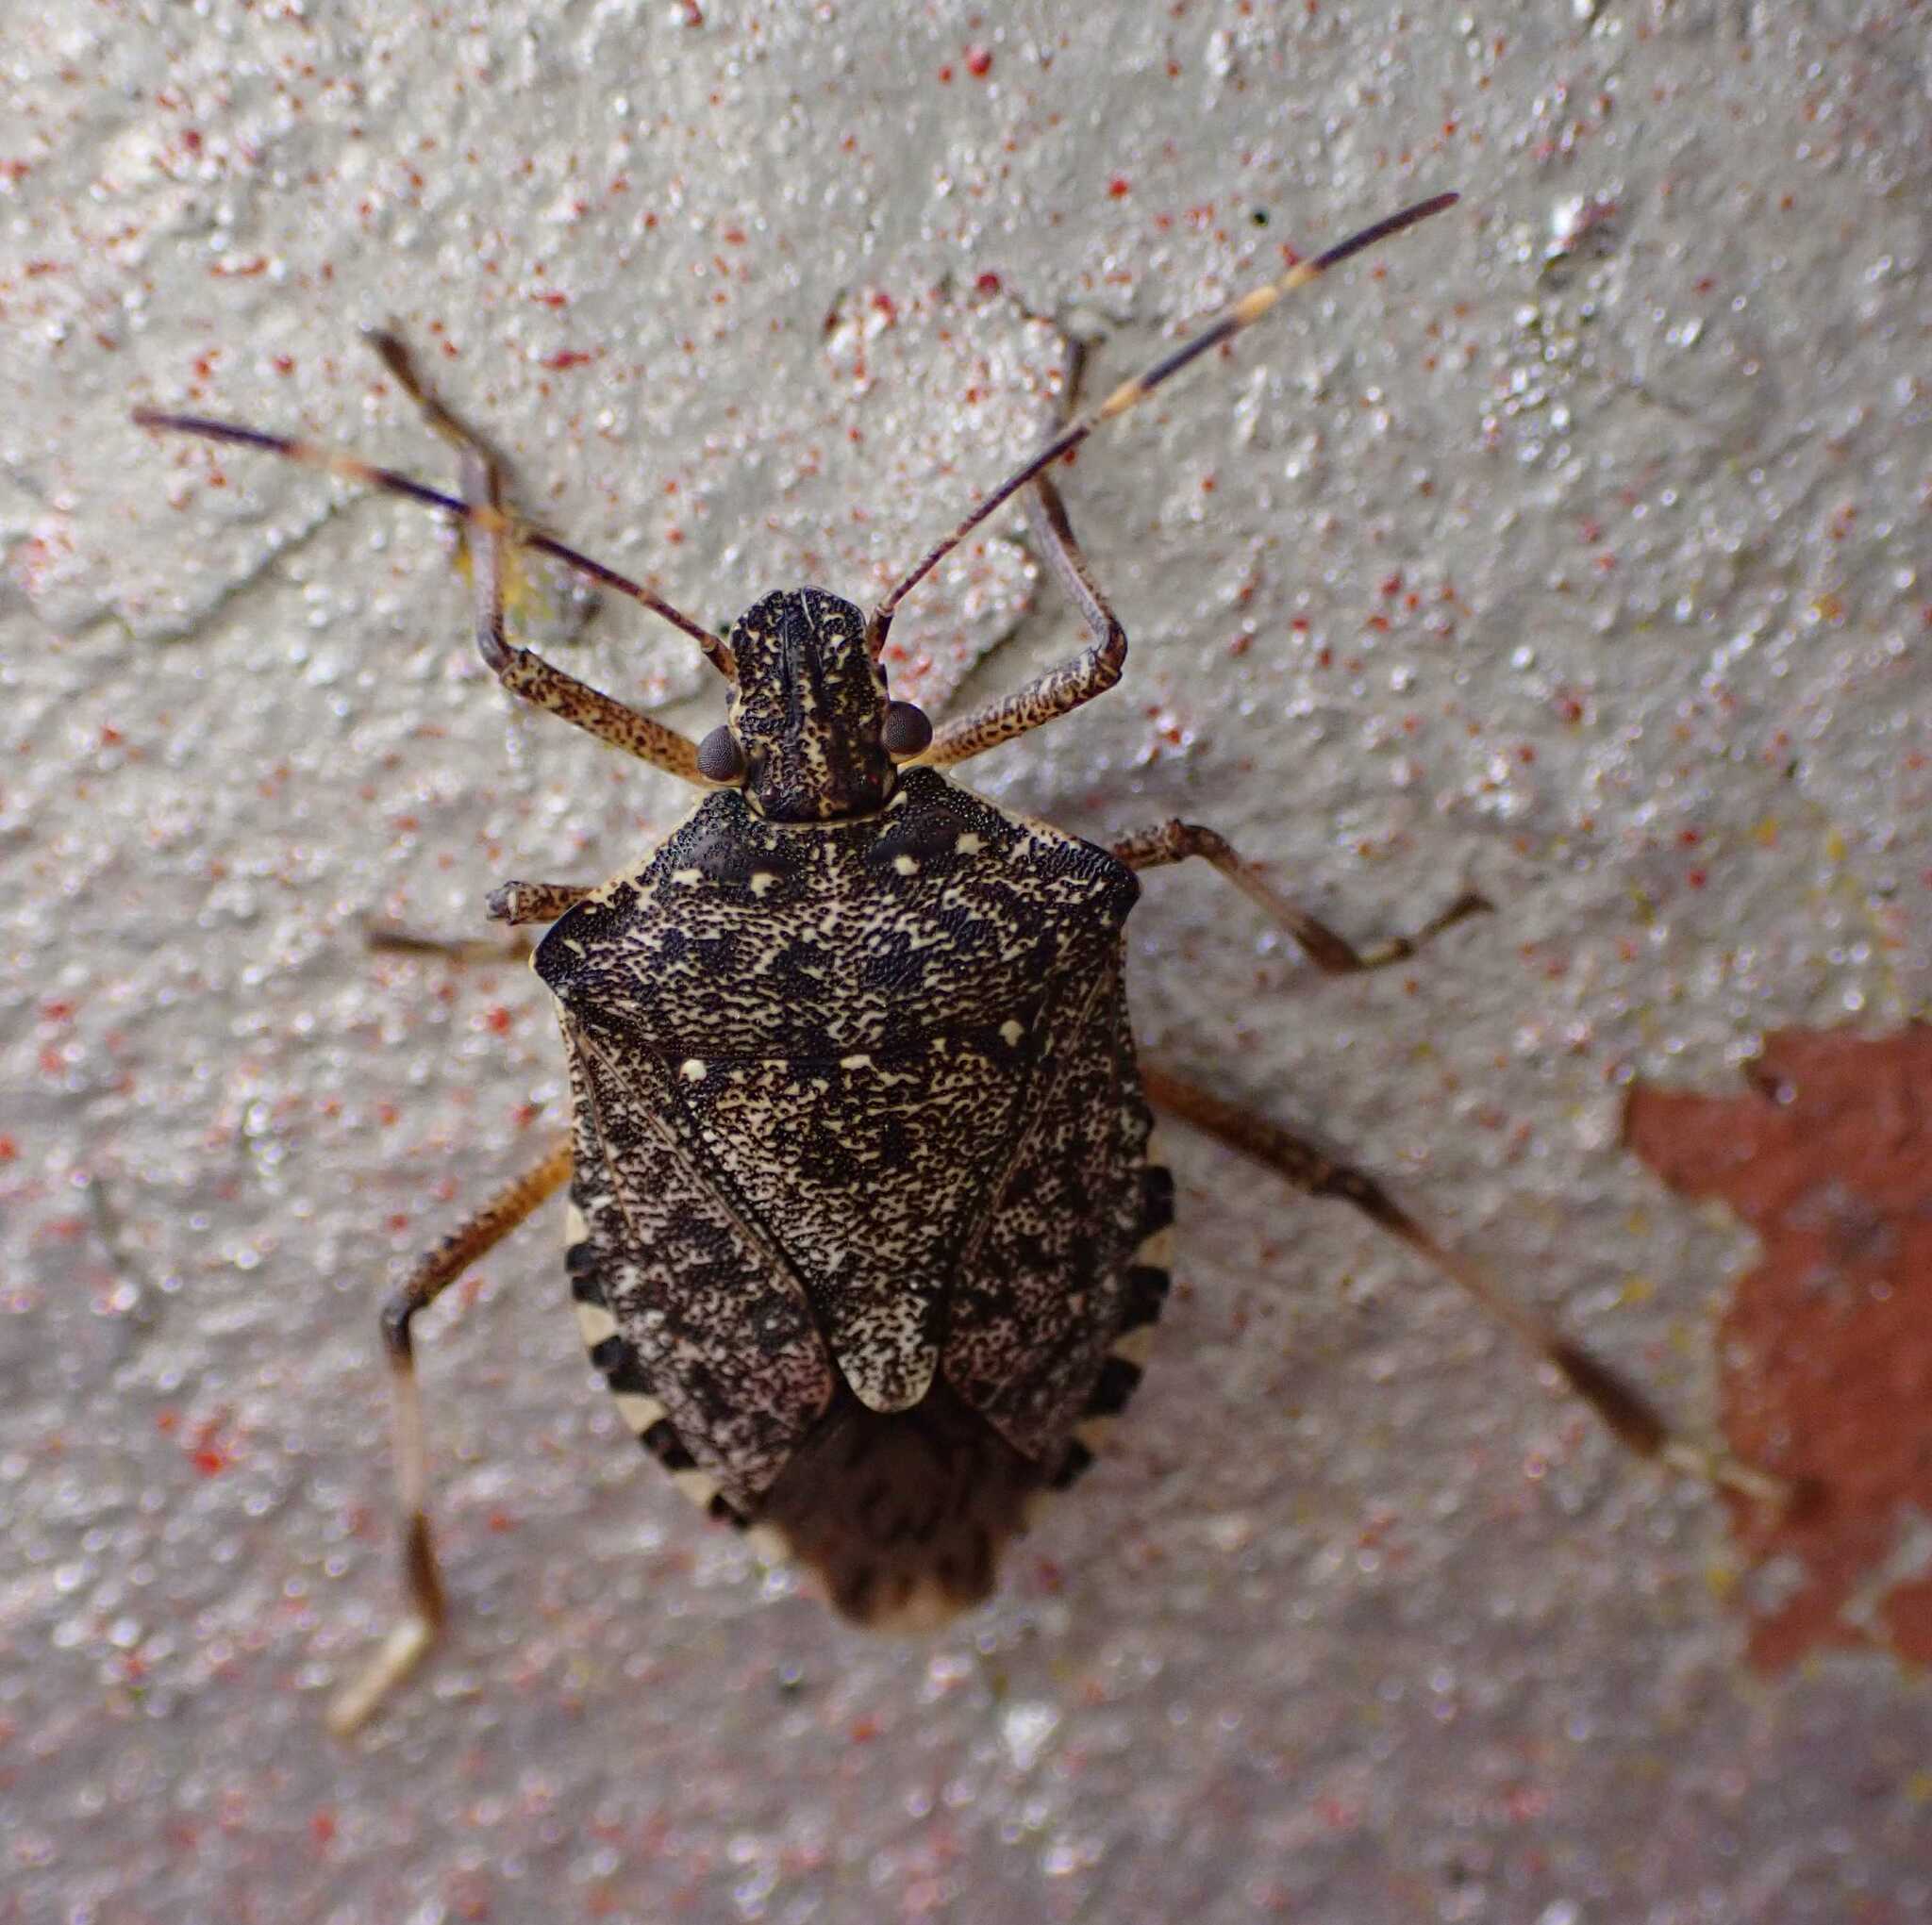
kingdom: Animalia
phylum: Arthropoda
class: Insecta
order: Hemiptera
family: Pentatomidae
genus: Halyomorpha
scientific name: Halyomorpha halys
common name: Brown marmorated stink bug
